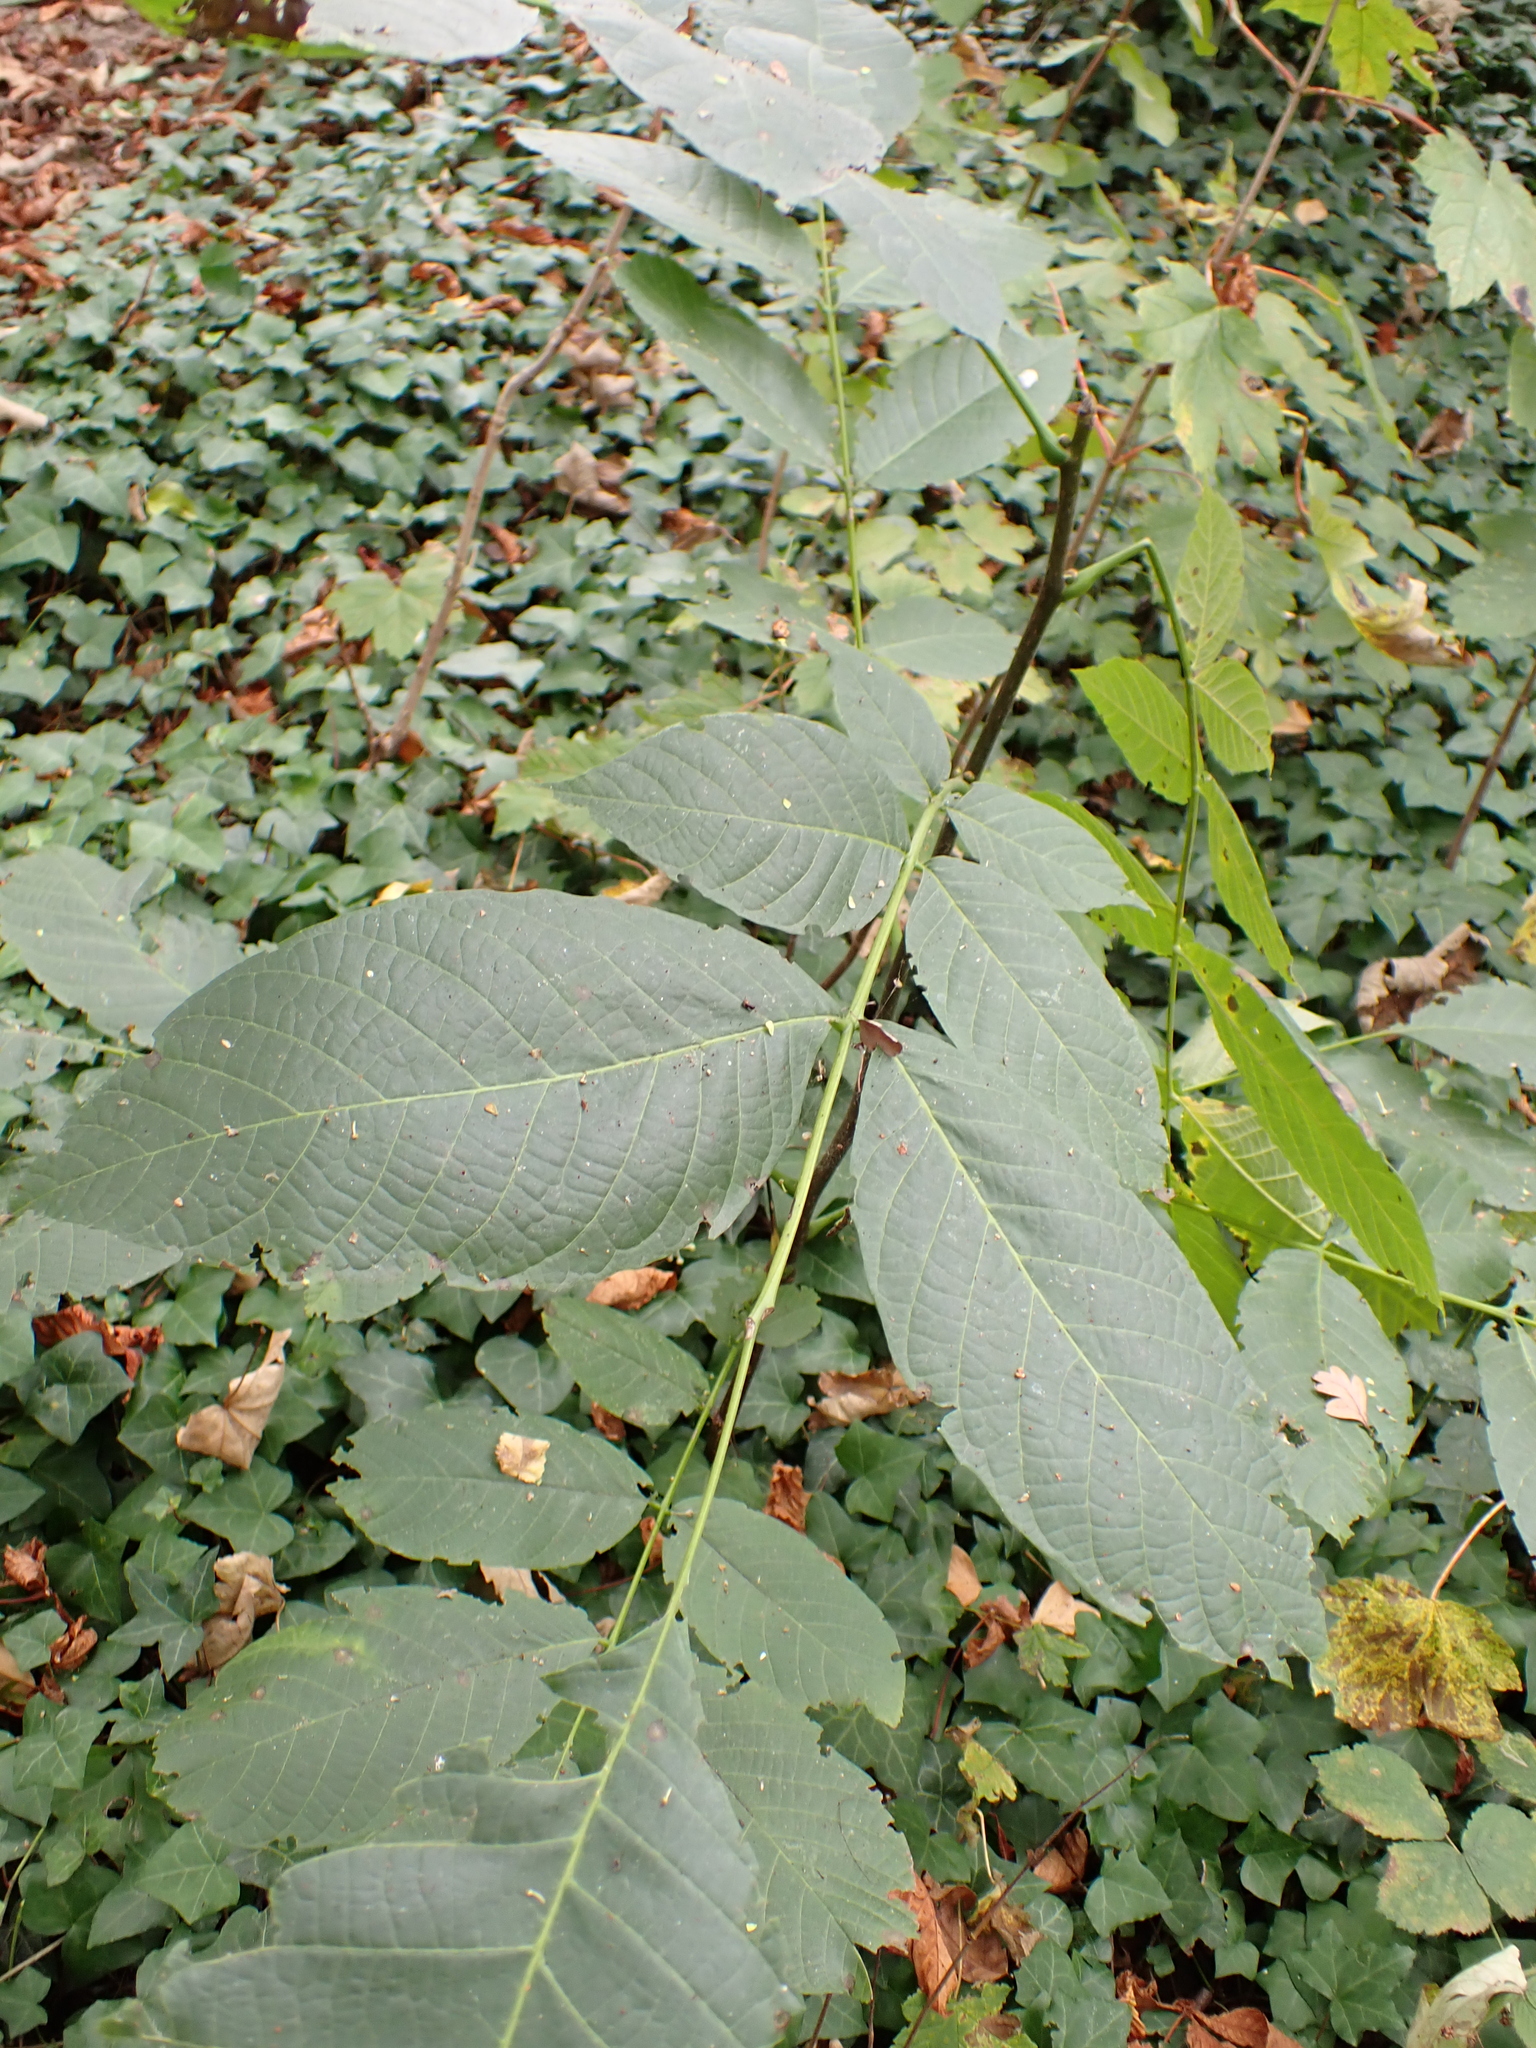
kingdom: Plantae
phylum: Tracheophyta
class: Magnoliopsida
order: Fagales
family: Juglandaceae
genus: Juglans
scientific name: Juglans regia
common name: Walnut
